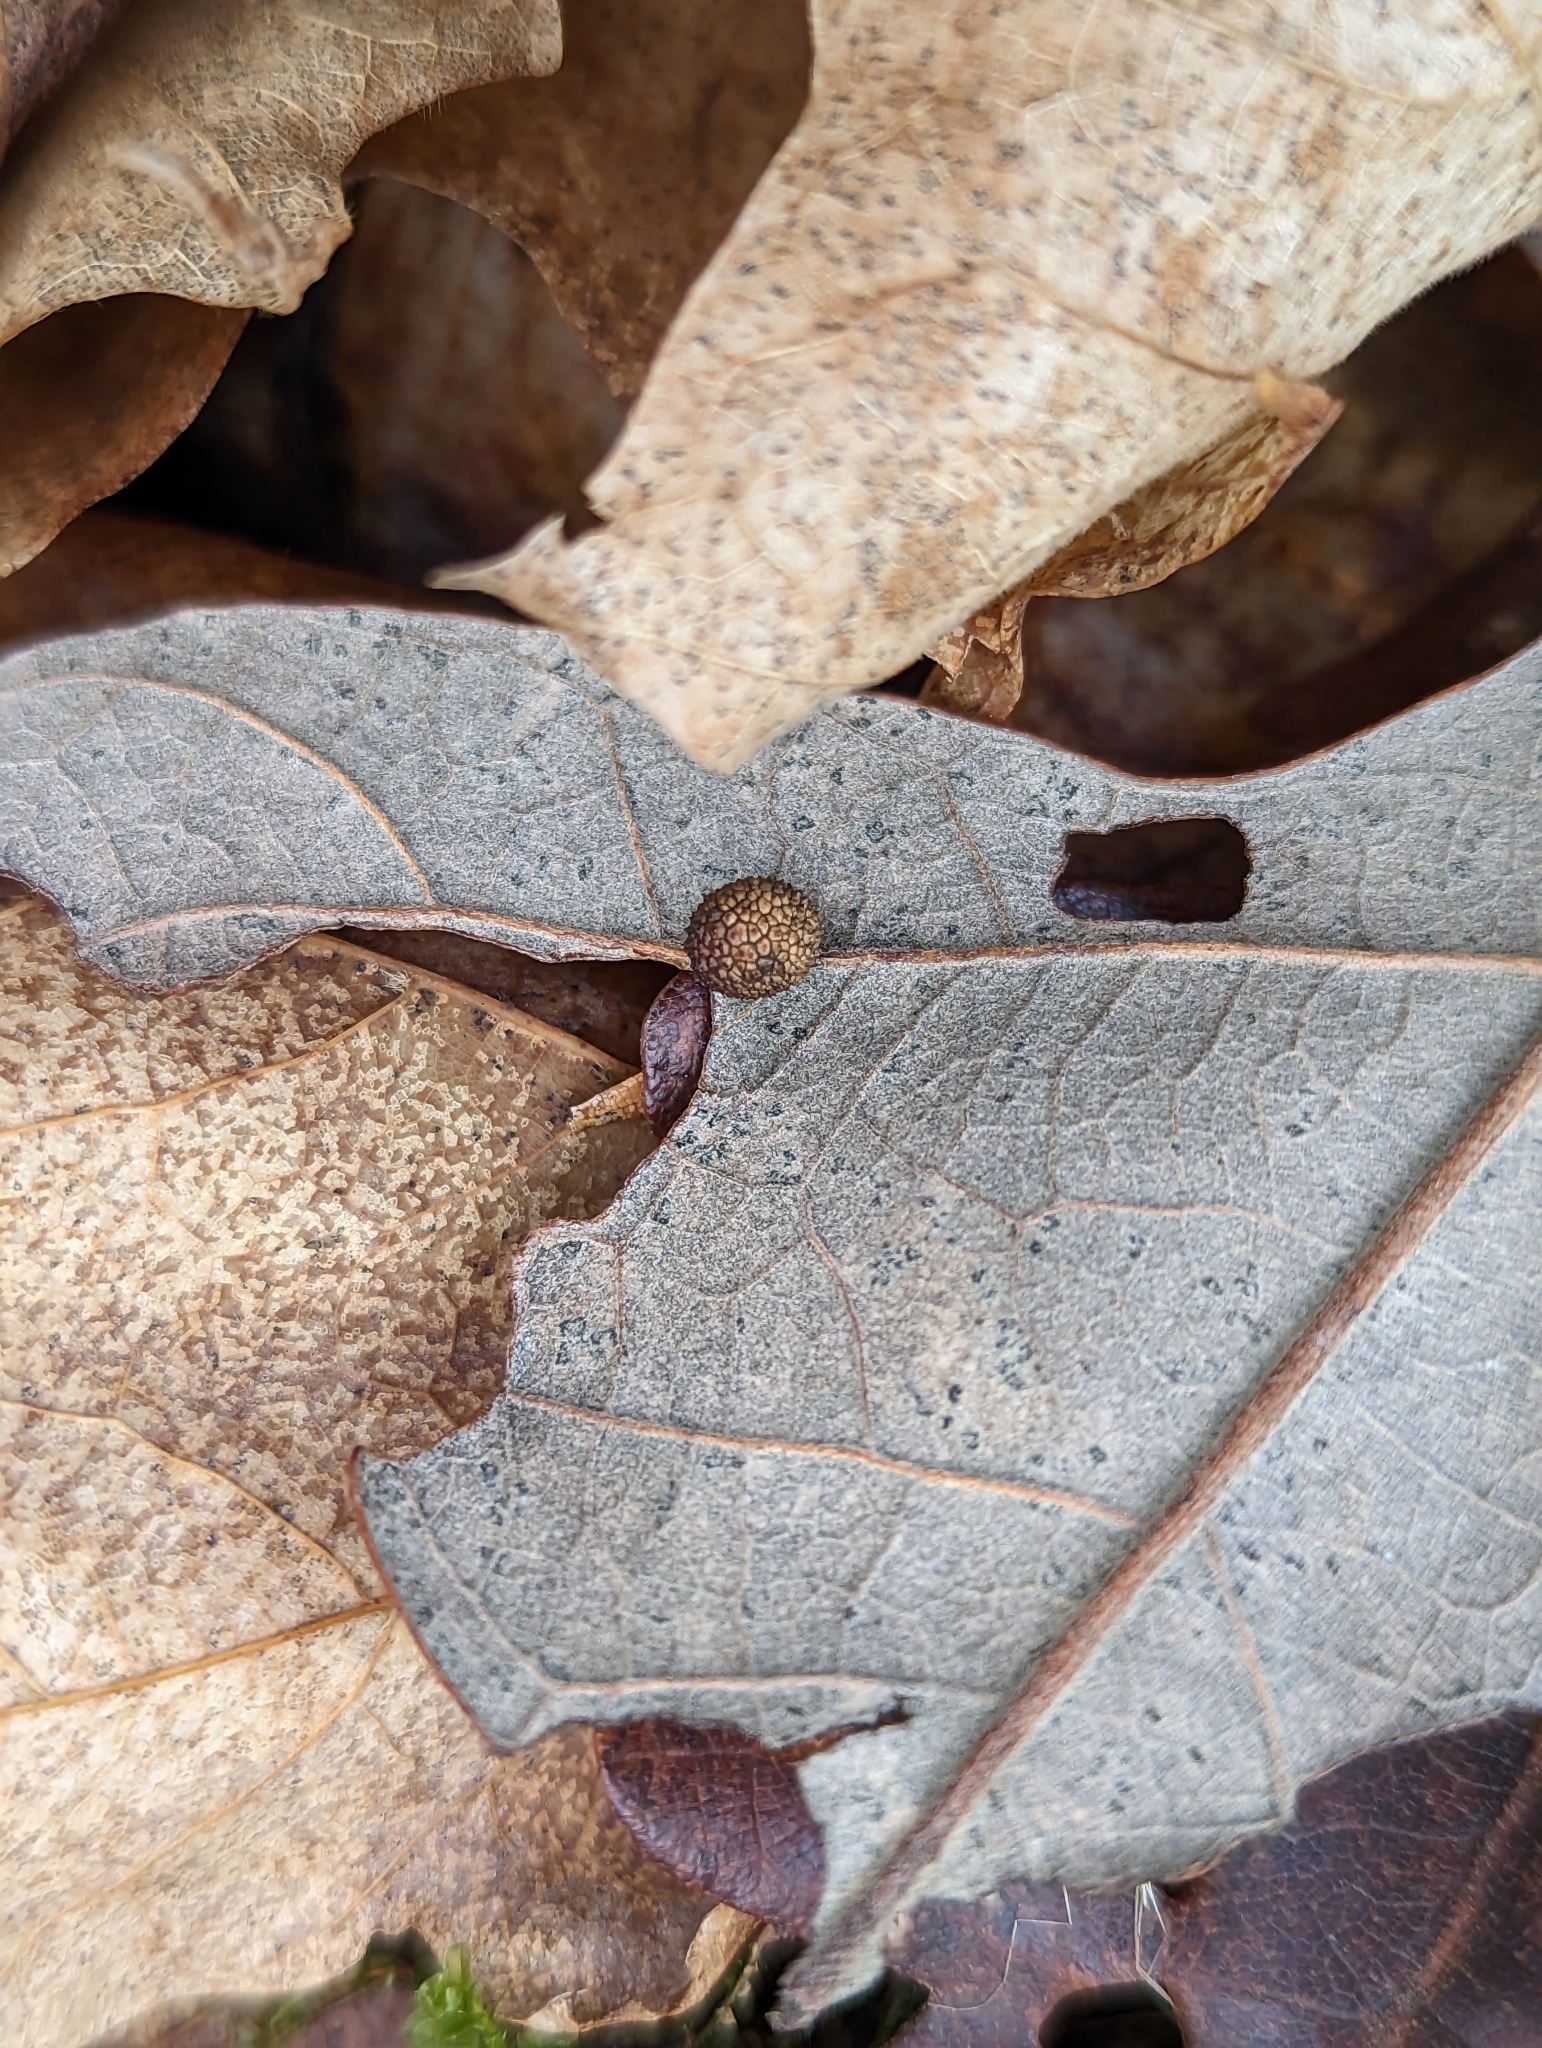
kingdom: Animalia
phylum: Arthropoda
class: Insecta
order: Hymenoptera
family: Cynipidae
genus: Acraspis
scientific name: Acraspis quercushirta
